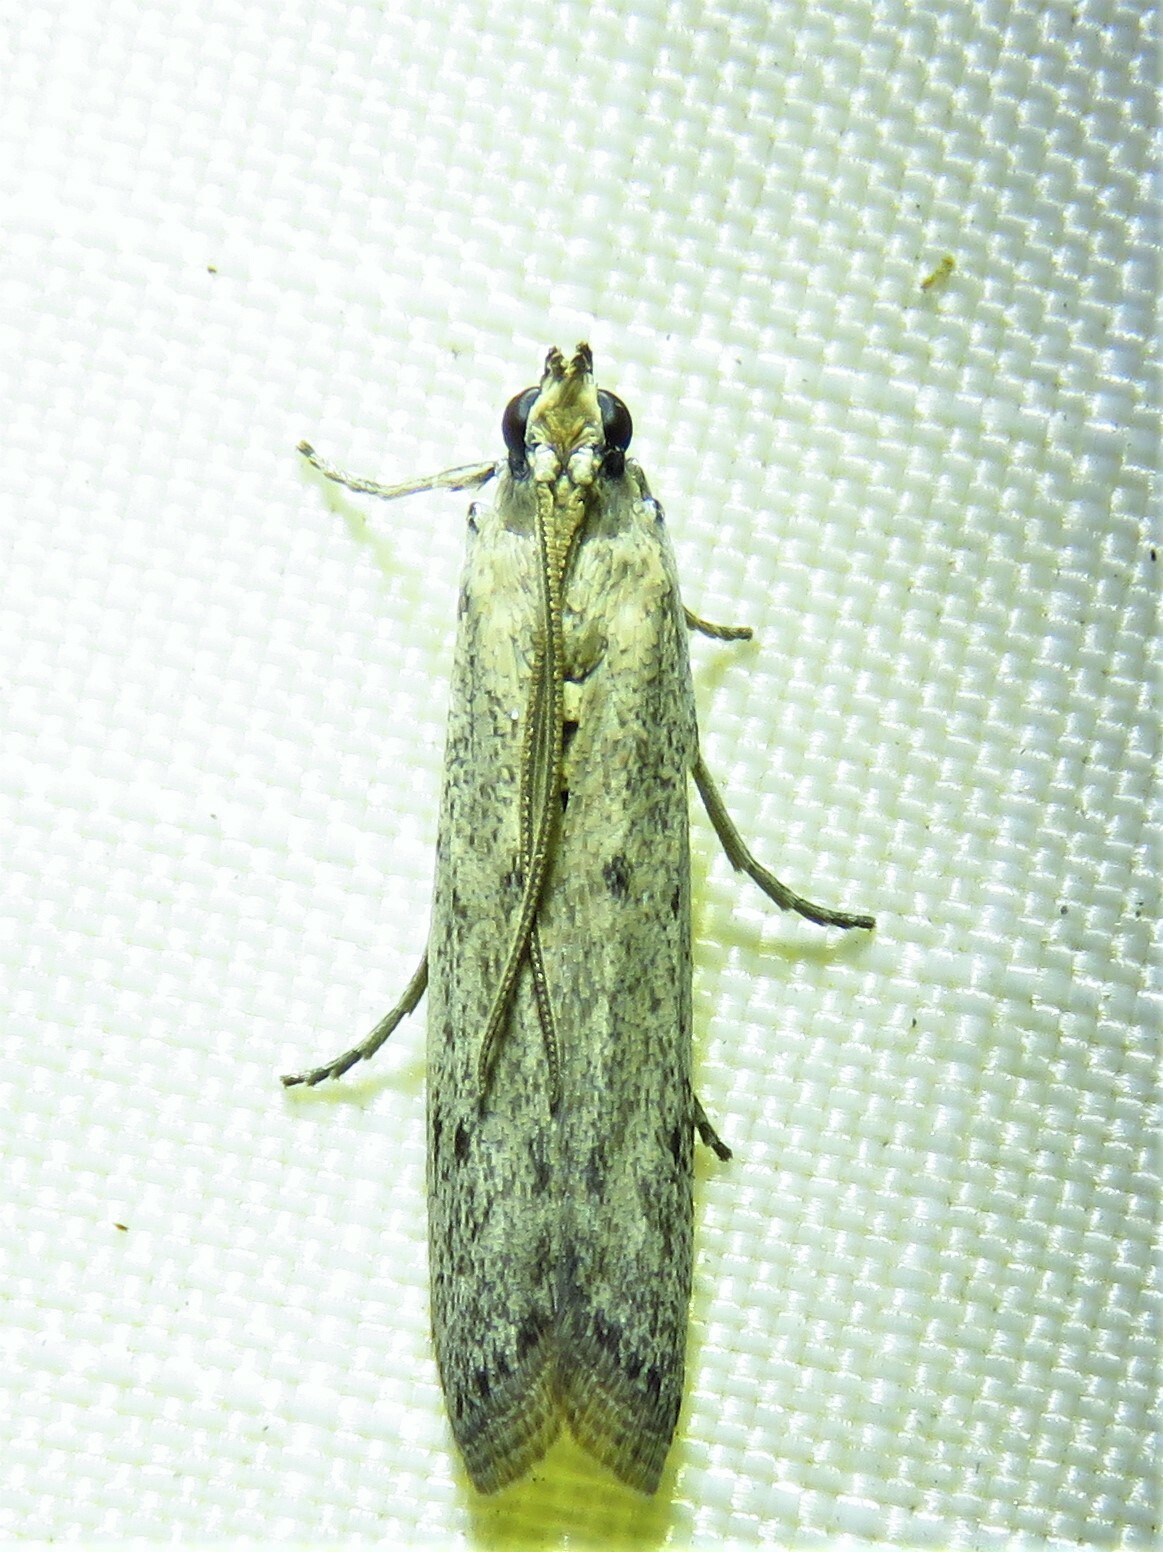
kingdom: Animalia
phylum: Arthropoda
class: Insecta
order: Lepidoptera
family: Pyralidae
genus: Homoeosoma
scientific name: Homoeosoma electella
